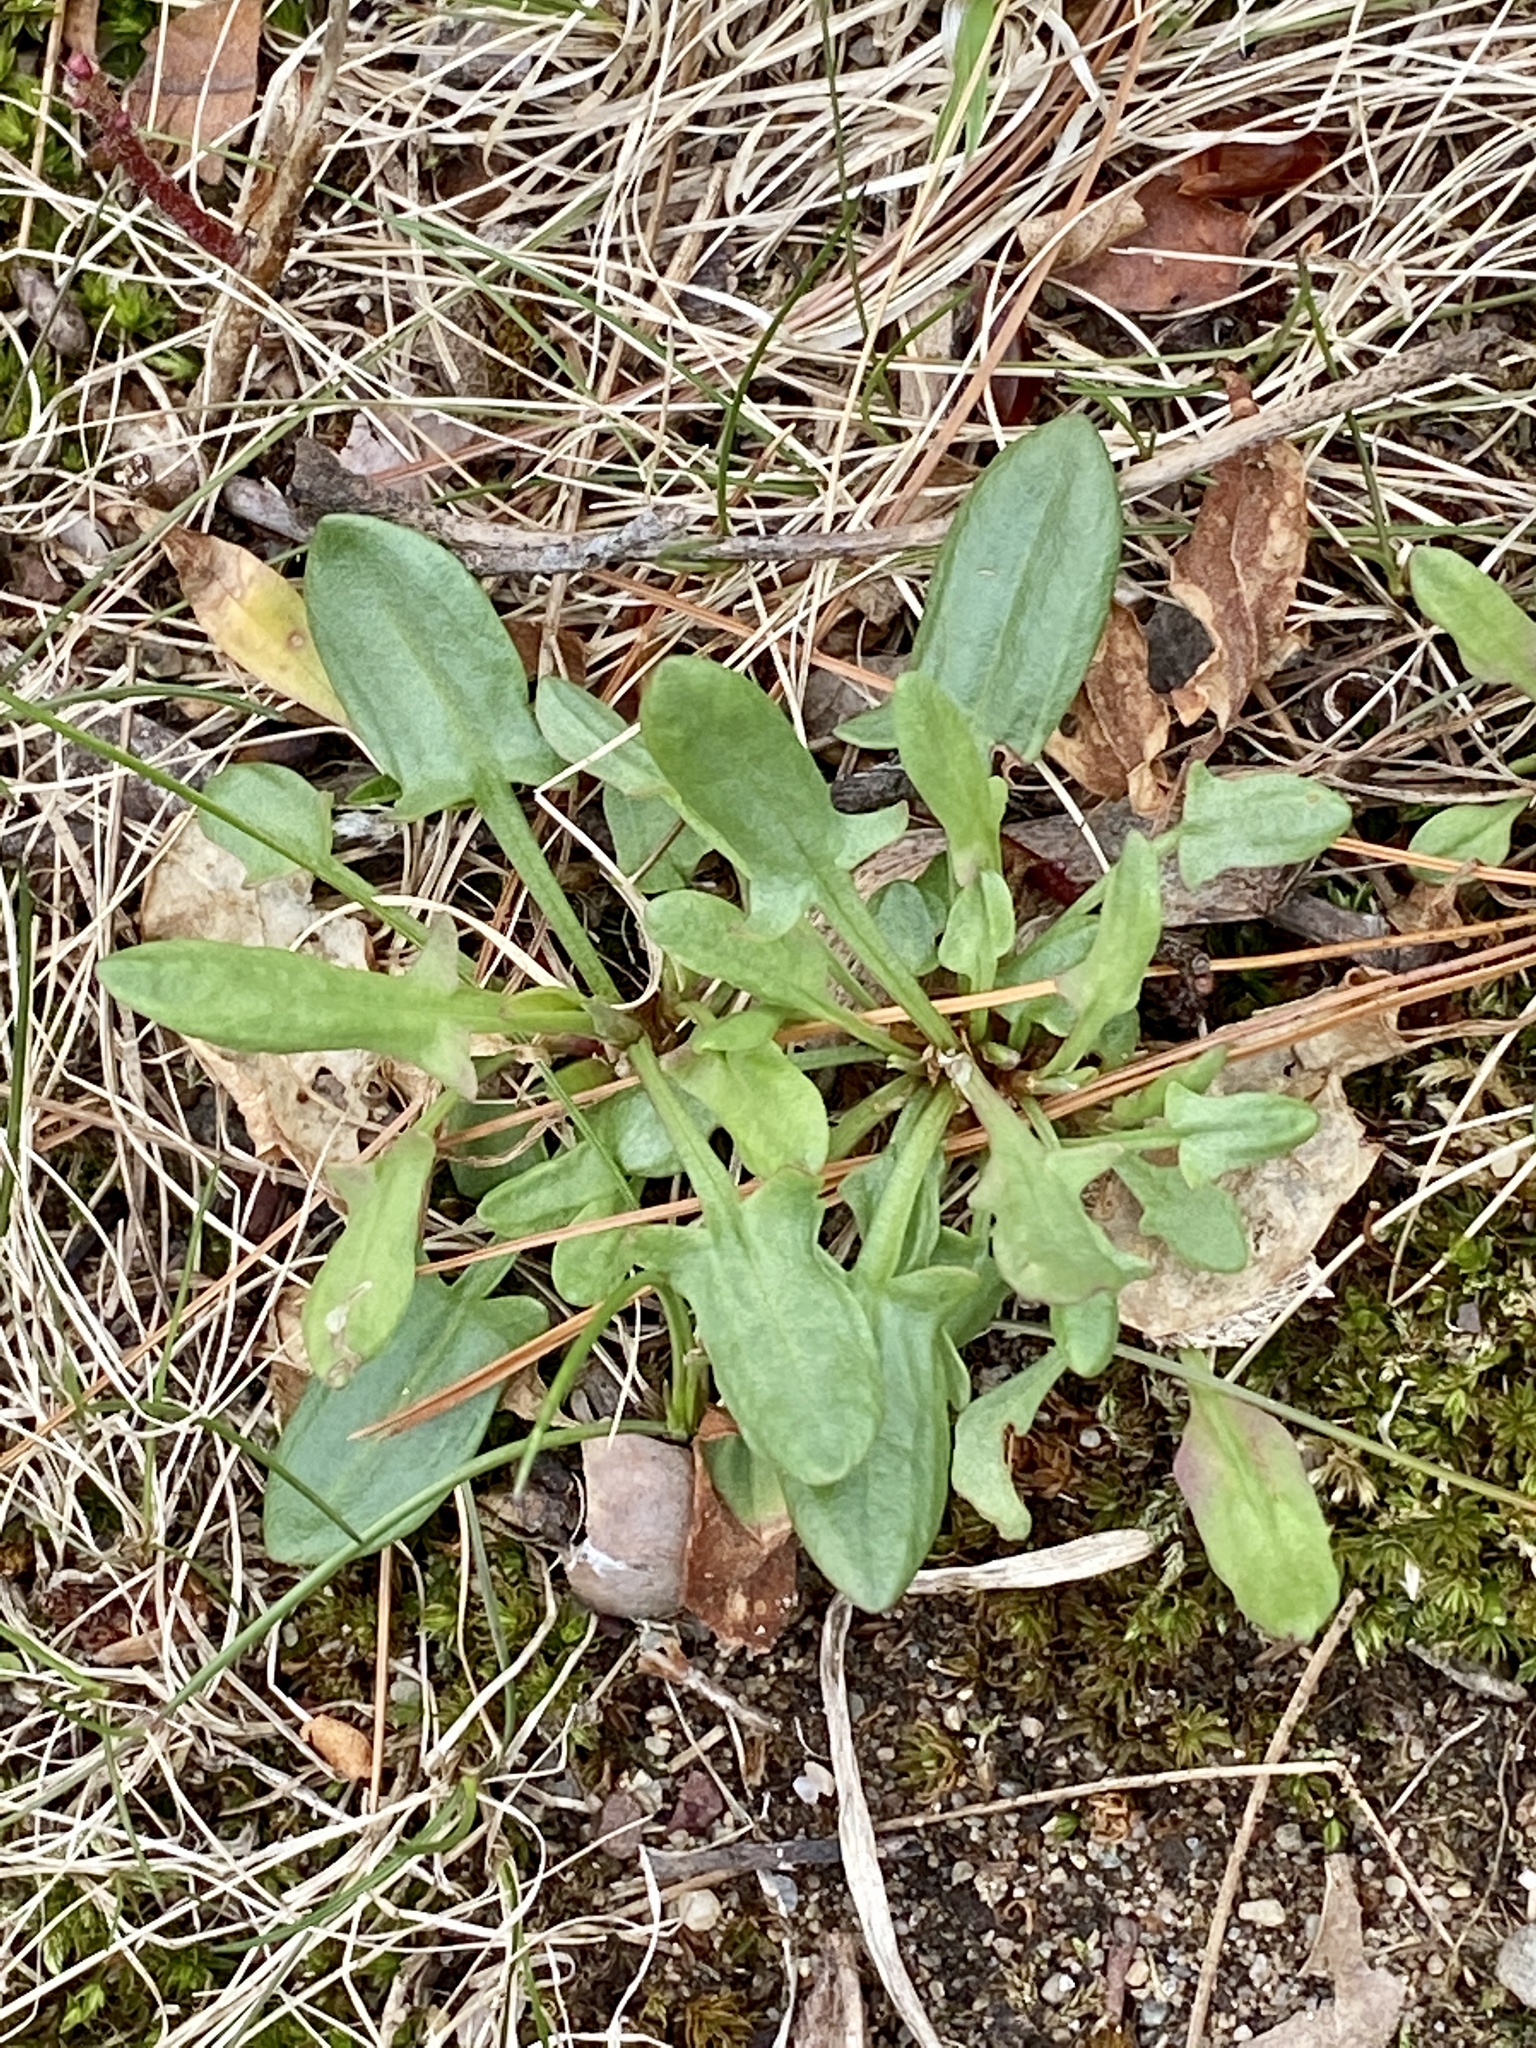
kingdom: Plantae
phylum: Tracheophyta
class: Magnoliopsida
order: Caryophyllales
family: Polygonaceae
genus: Rumex
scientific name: Rumex acetosella
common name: Common sheep sorrel
